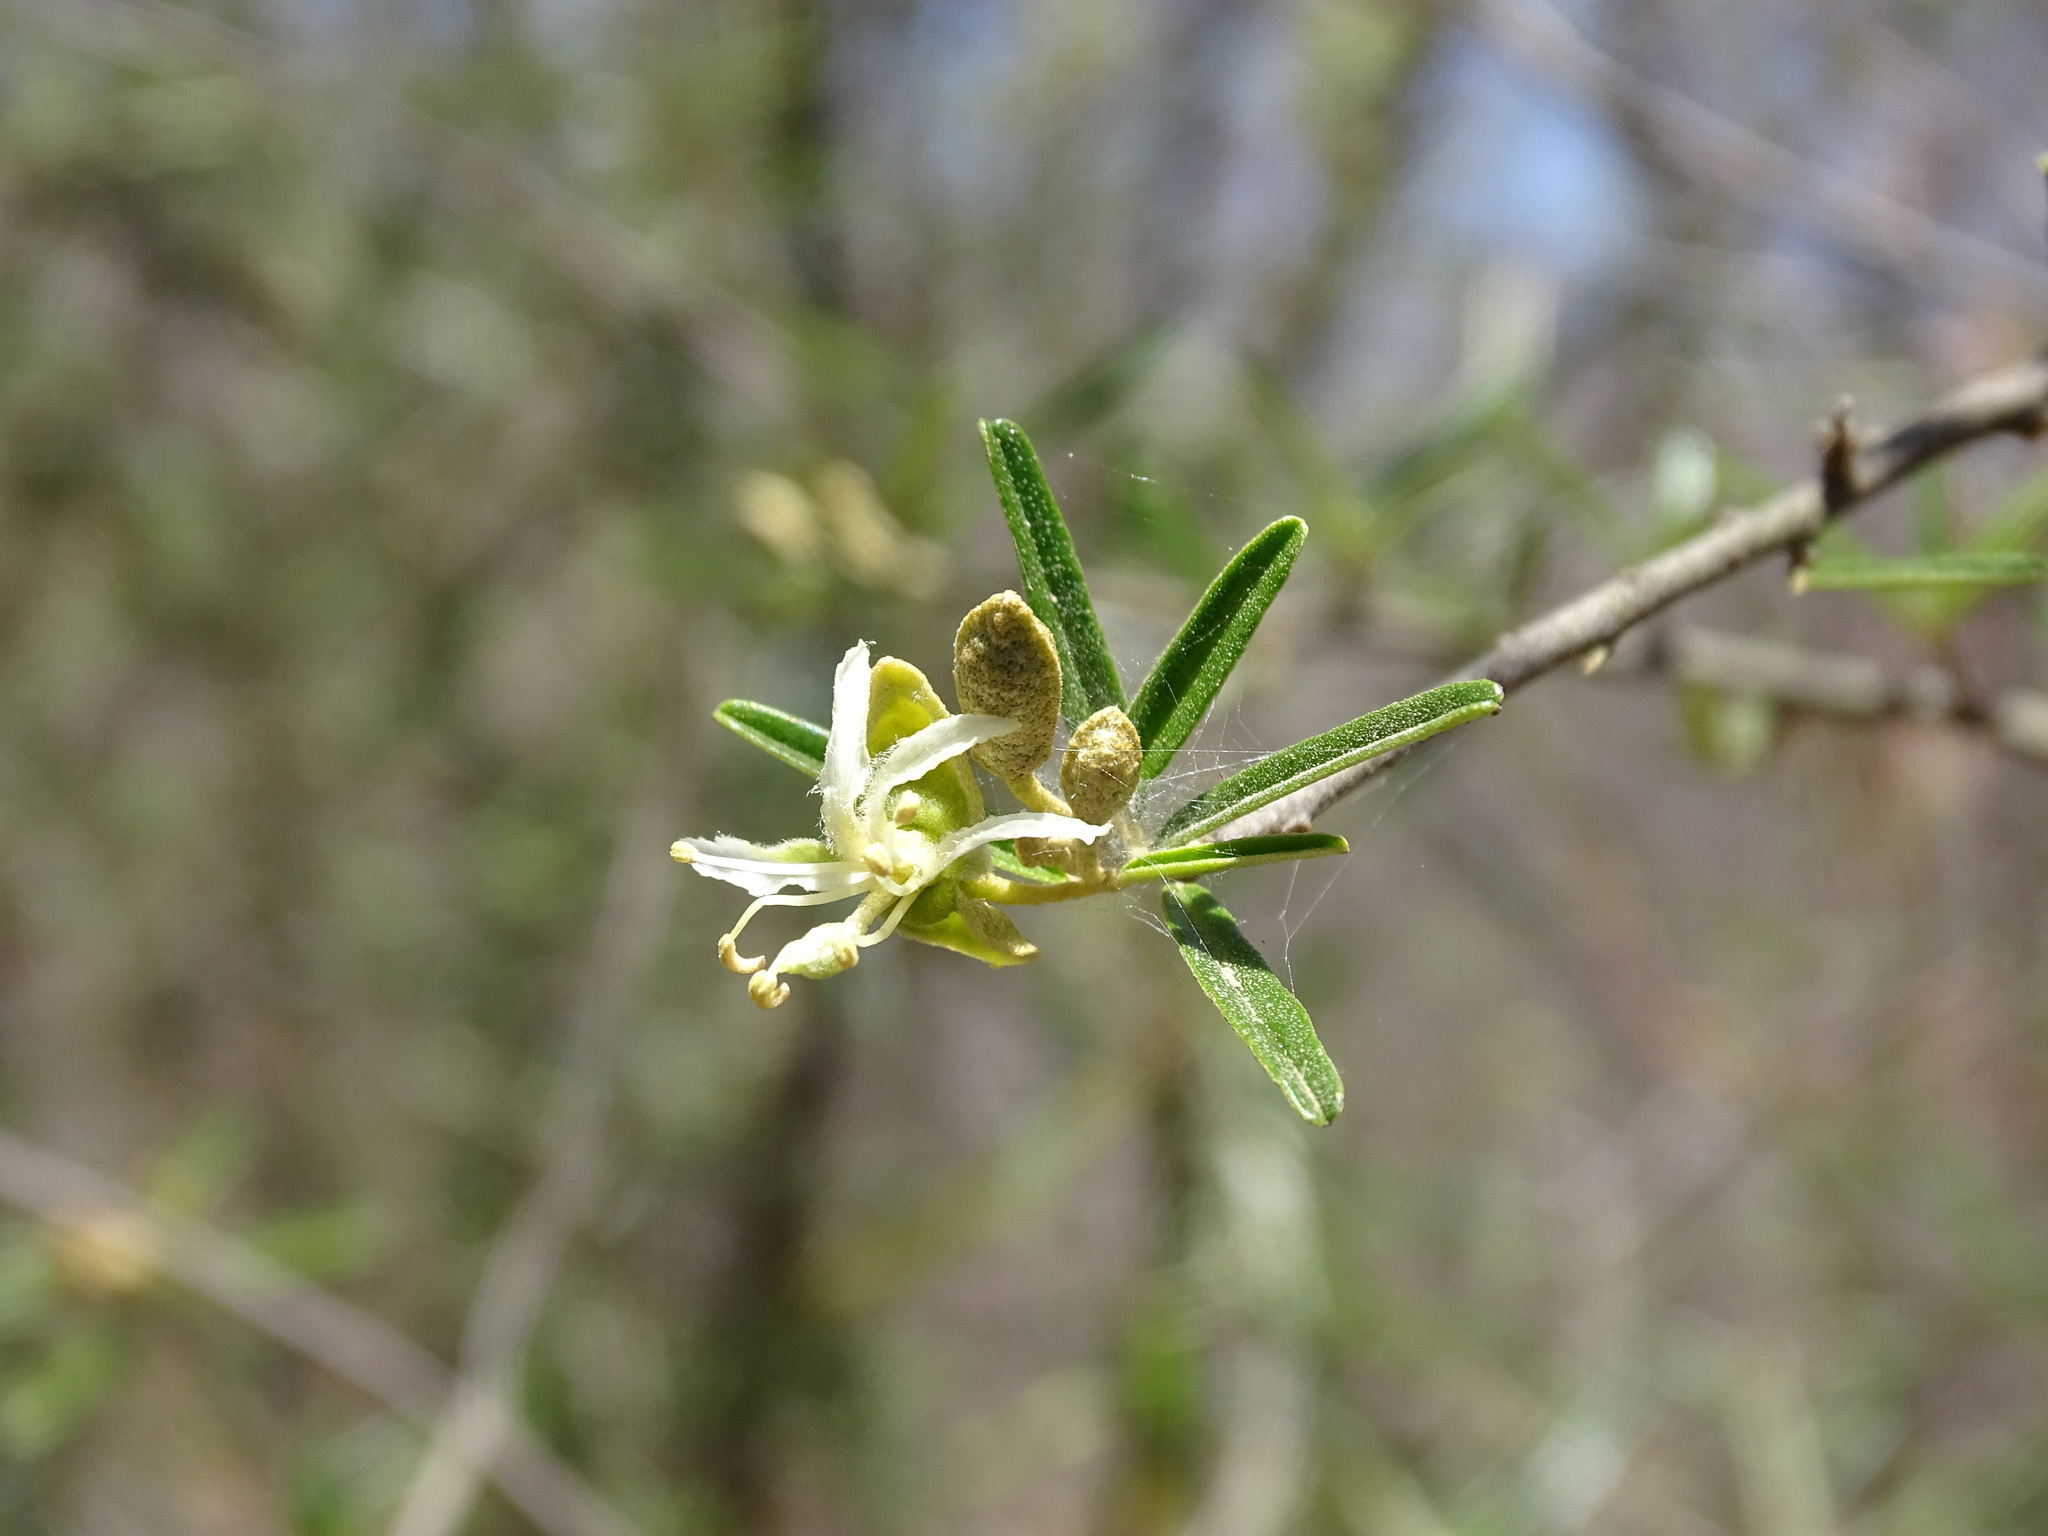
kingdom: Plantae
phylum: Tracheophyta
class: Magnoliopsida
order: Brassicales
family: Capparaceae
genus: Atamisquea
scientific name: Atamisquea emarginata
